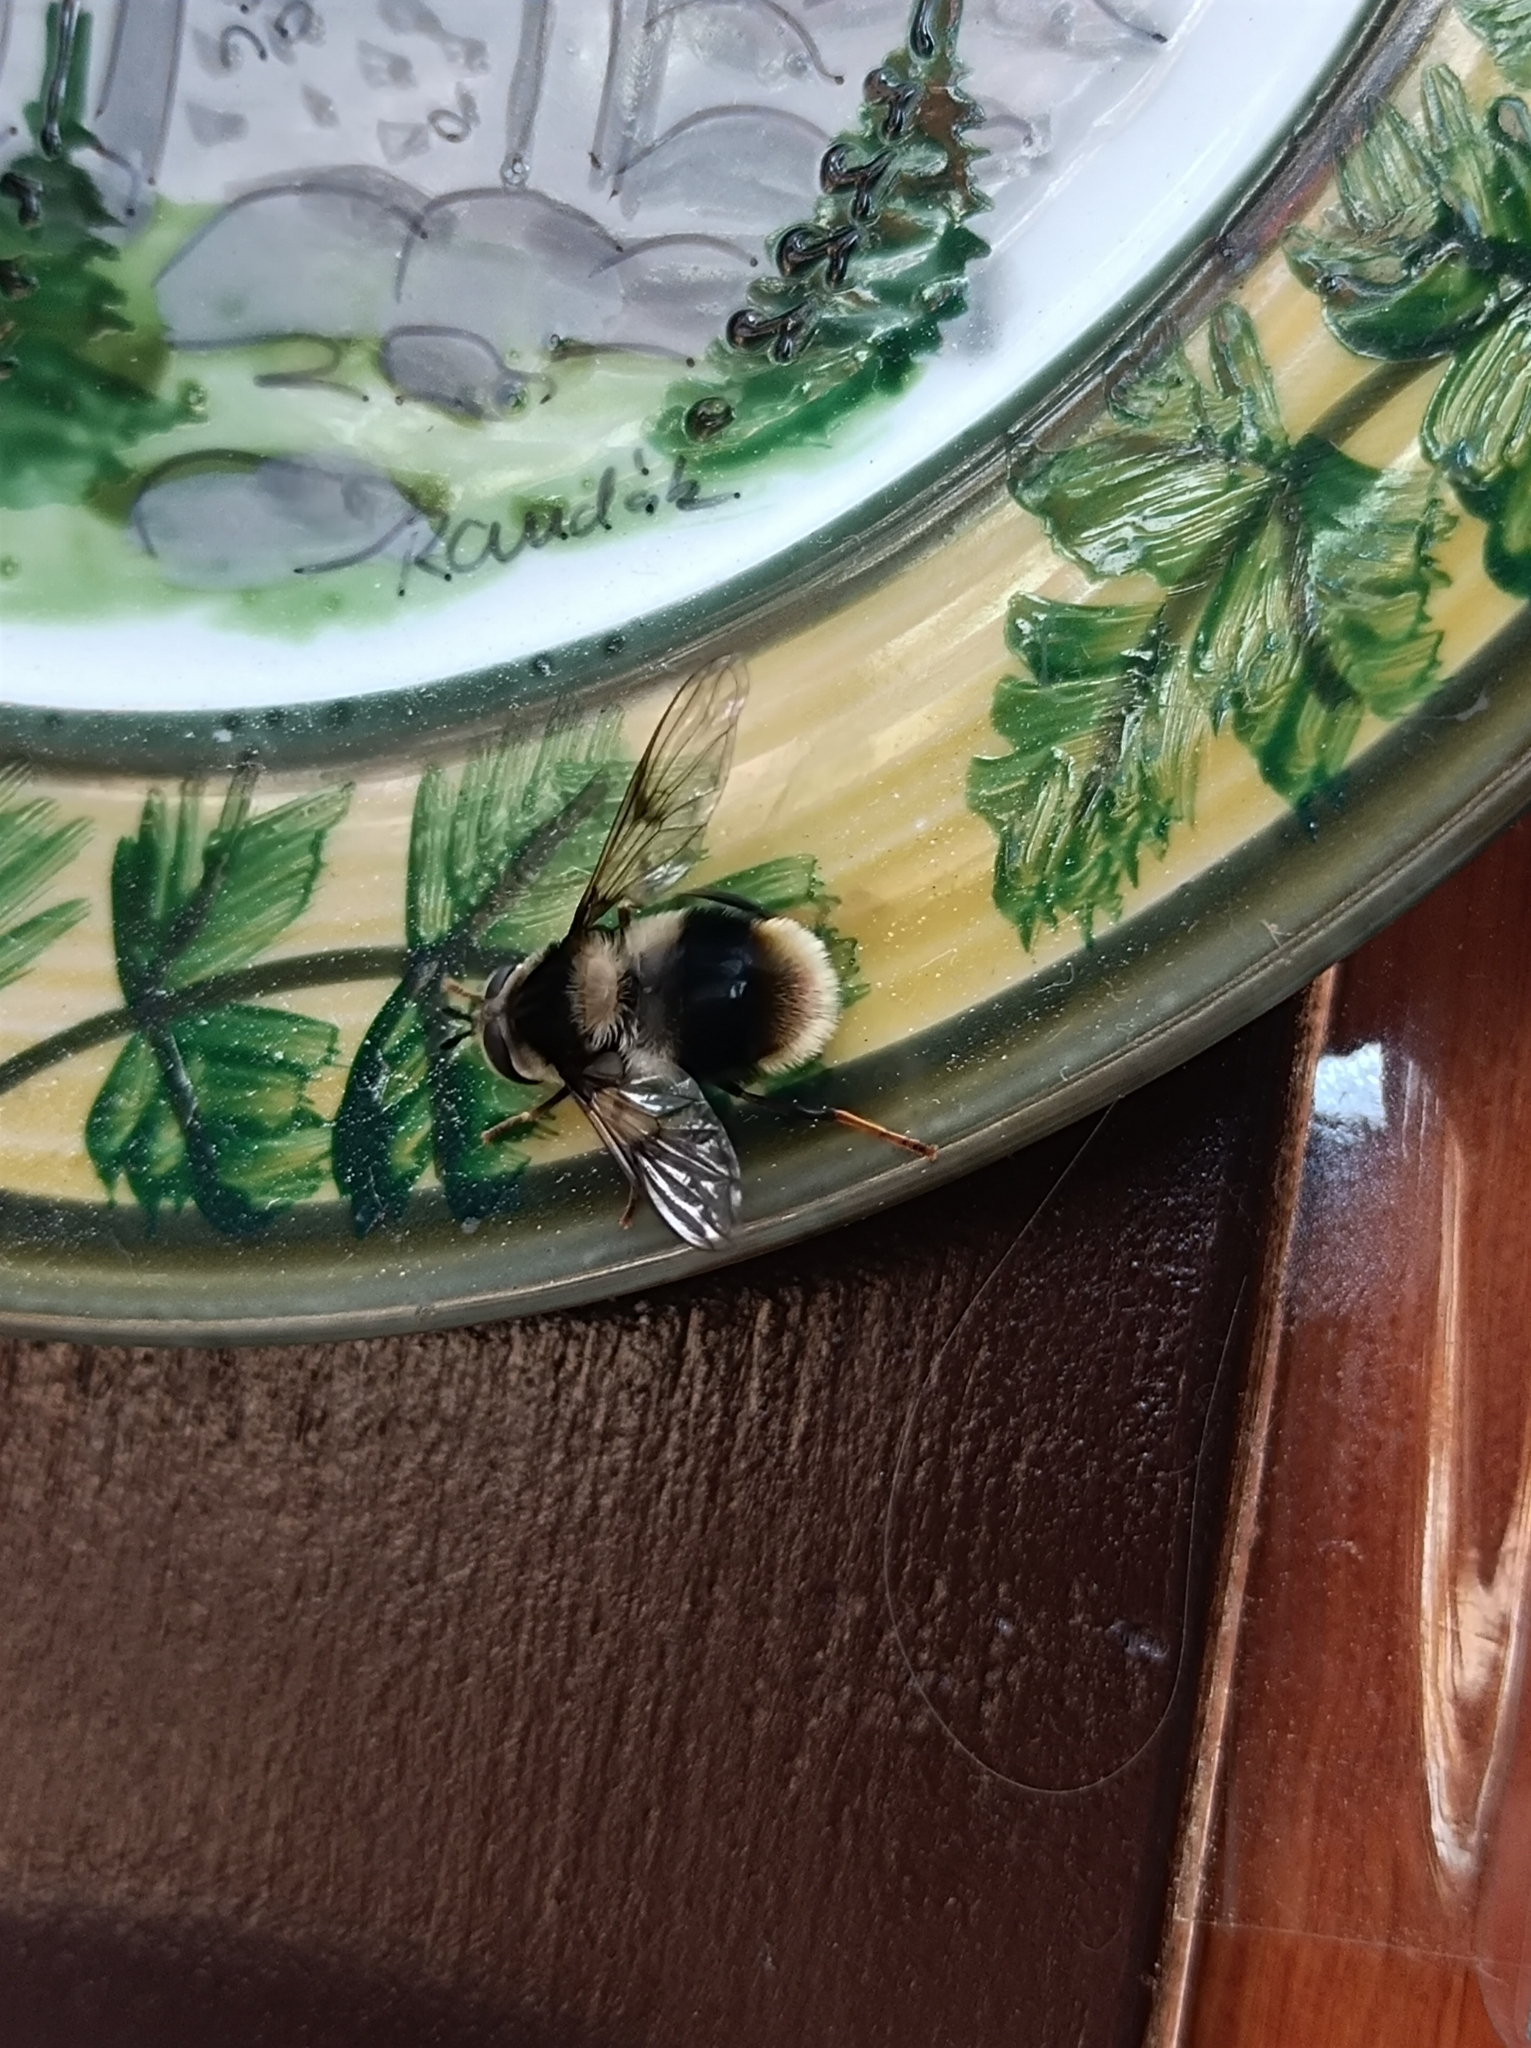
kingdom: Animalia
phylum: Arthropoda
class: Insecta
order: Diptera
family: Syrphidae
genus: Eriozona
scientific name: Eriozona syrphoides
